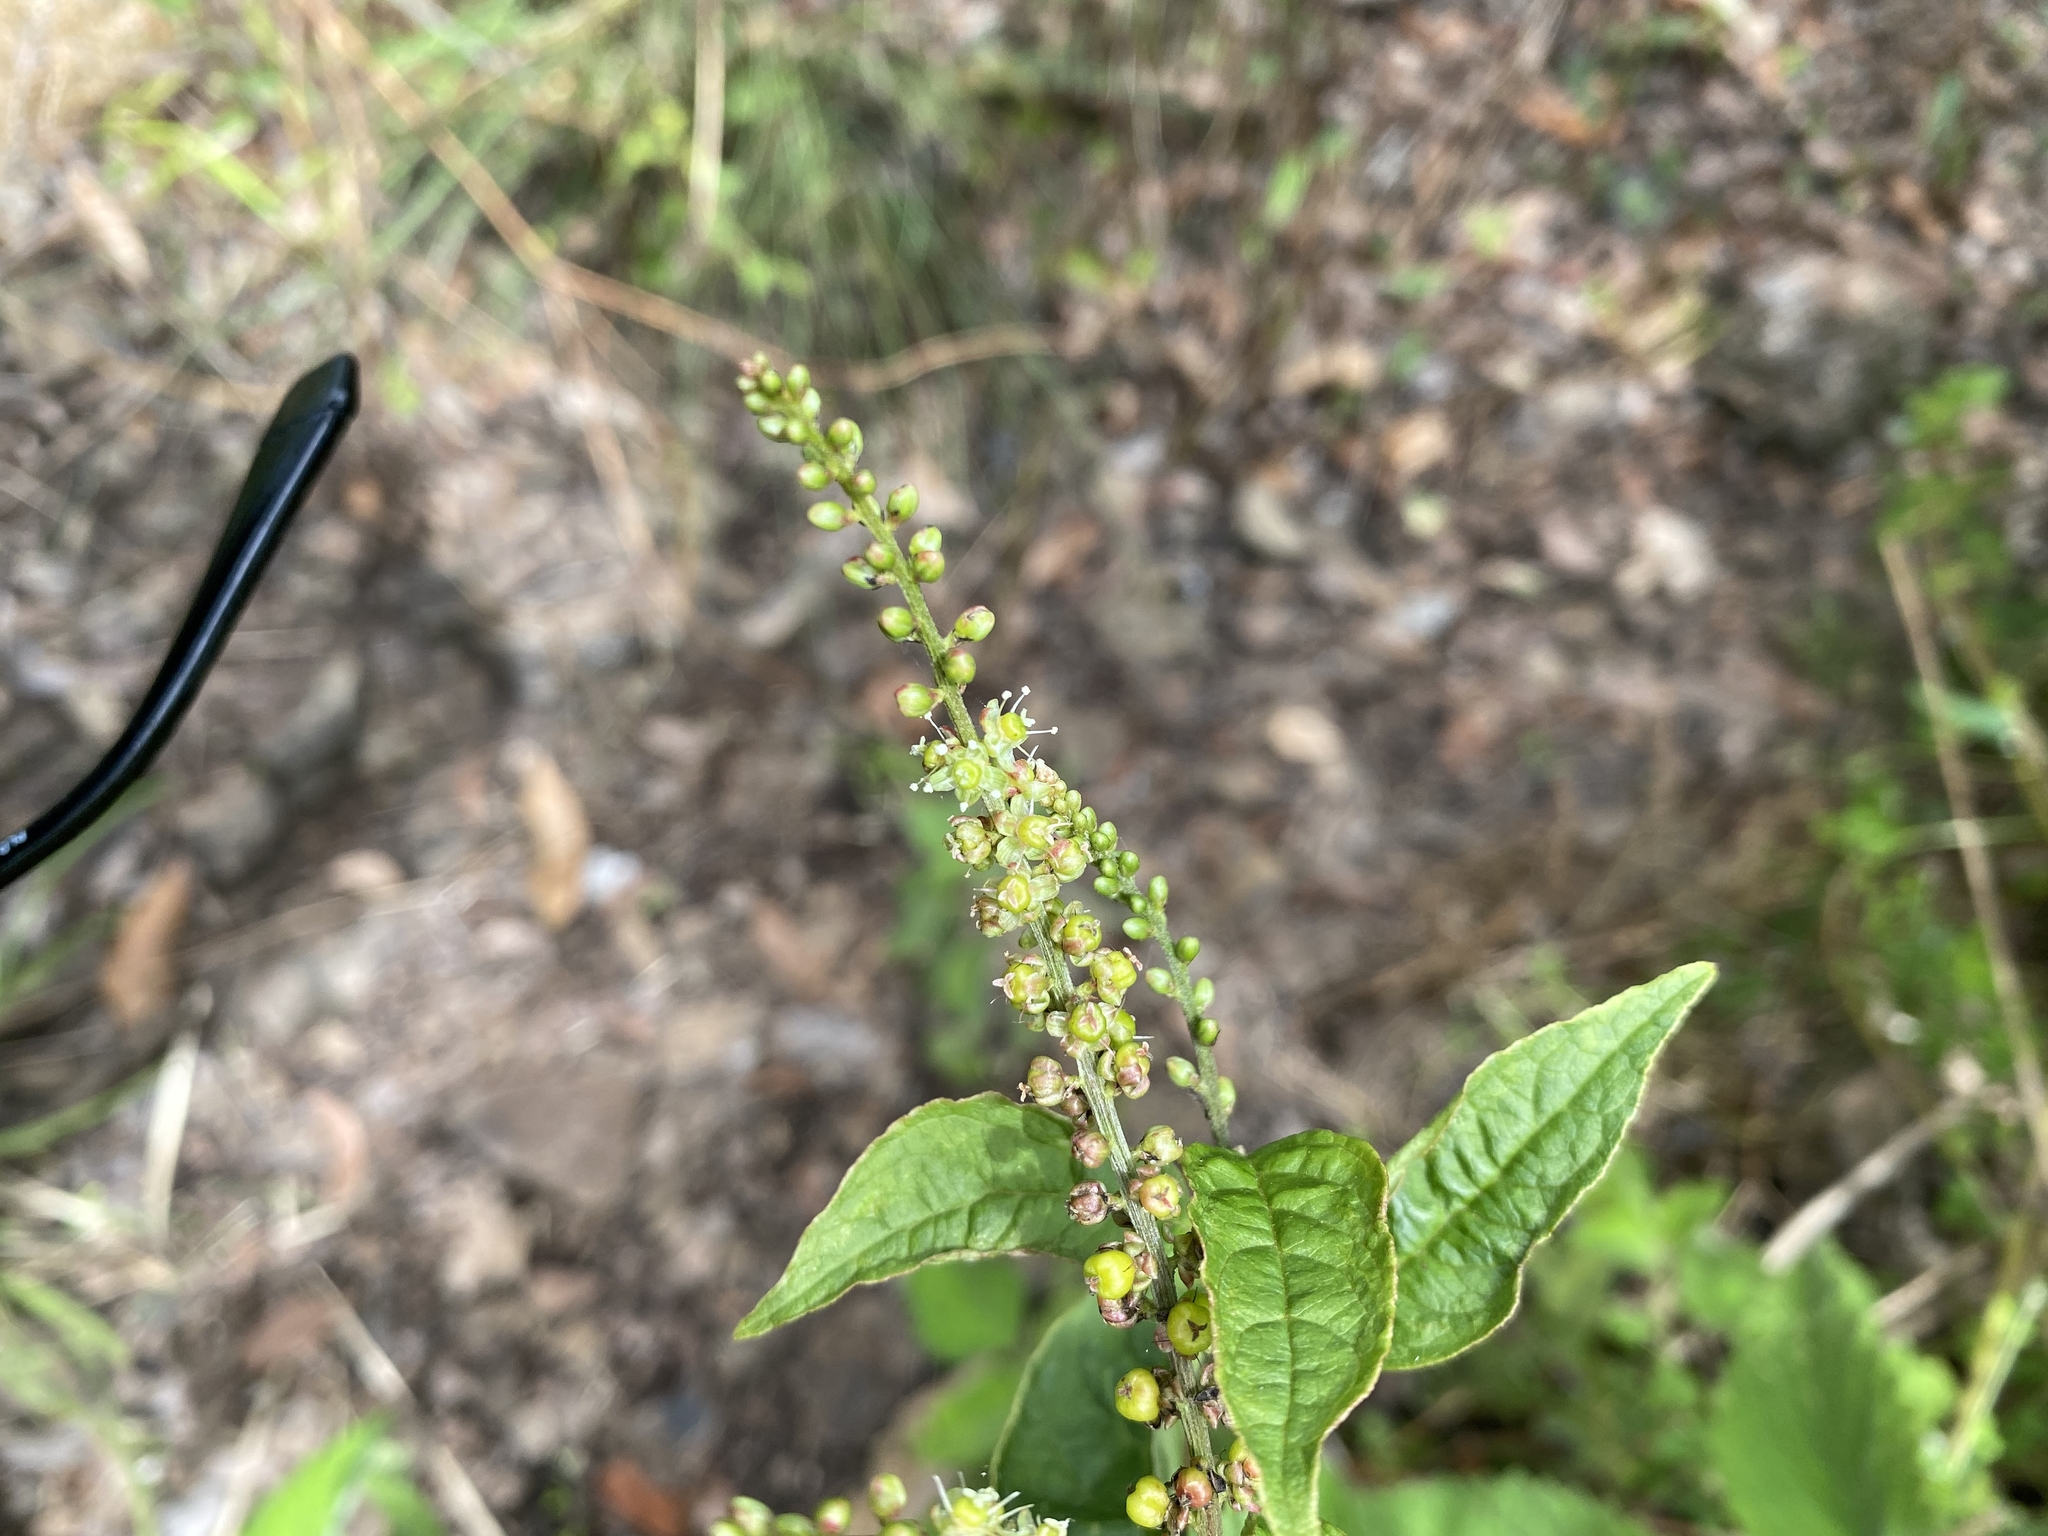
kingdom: Plantae
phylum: Tracheophyta
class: Magnoliopsida
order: Caryophyllales
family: Amaranthaceae
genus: Deeringia
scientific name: Deeringia amaranthoides
